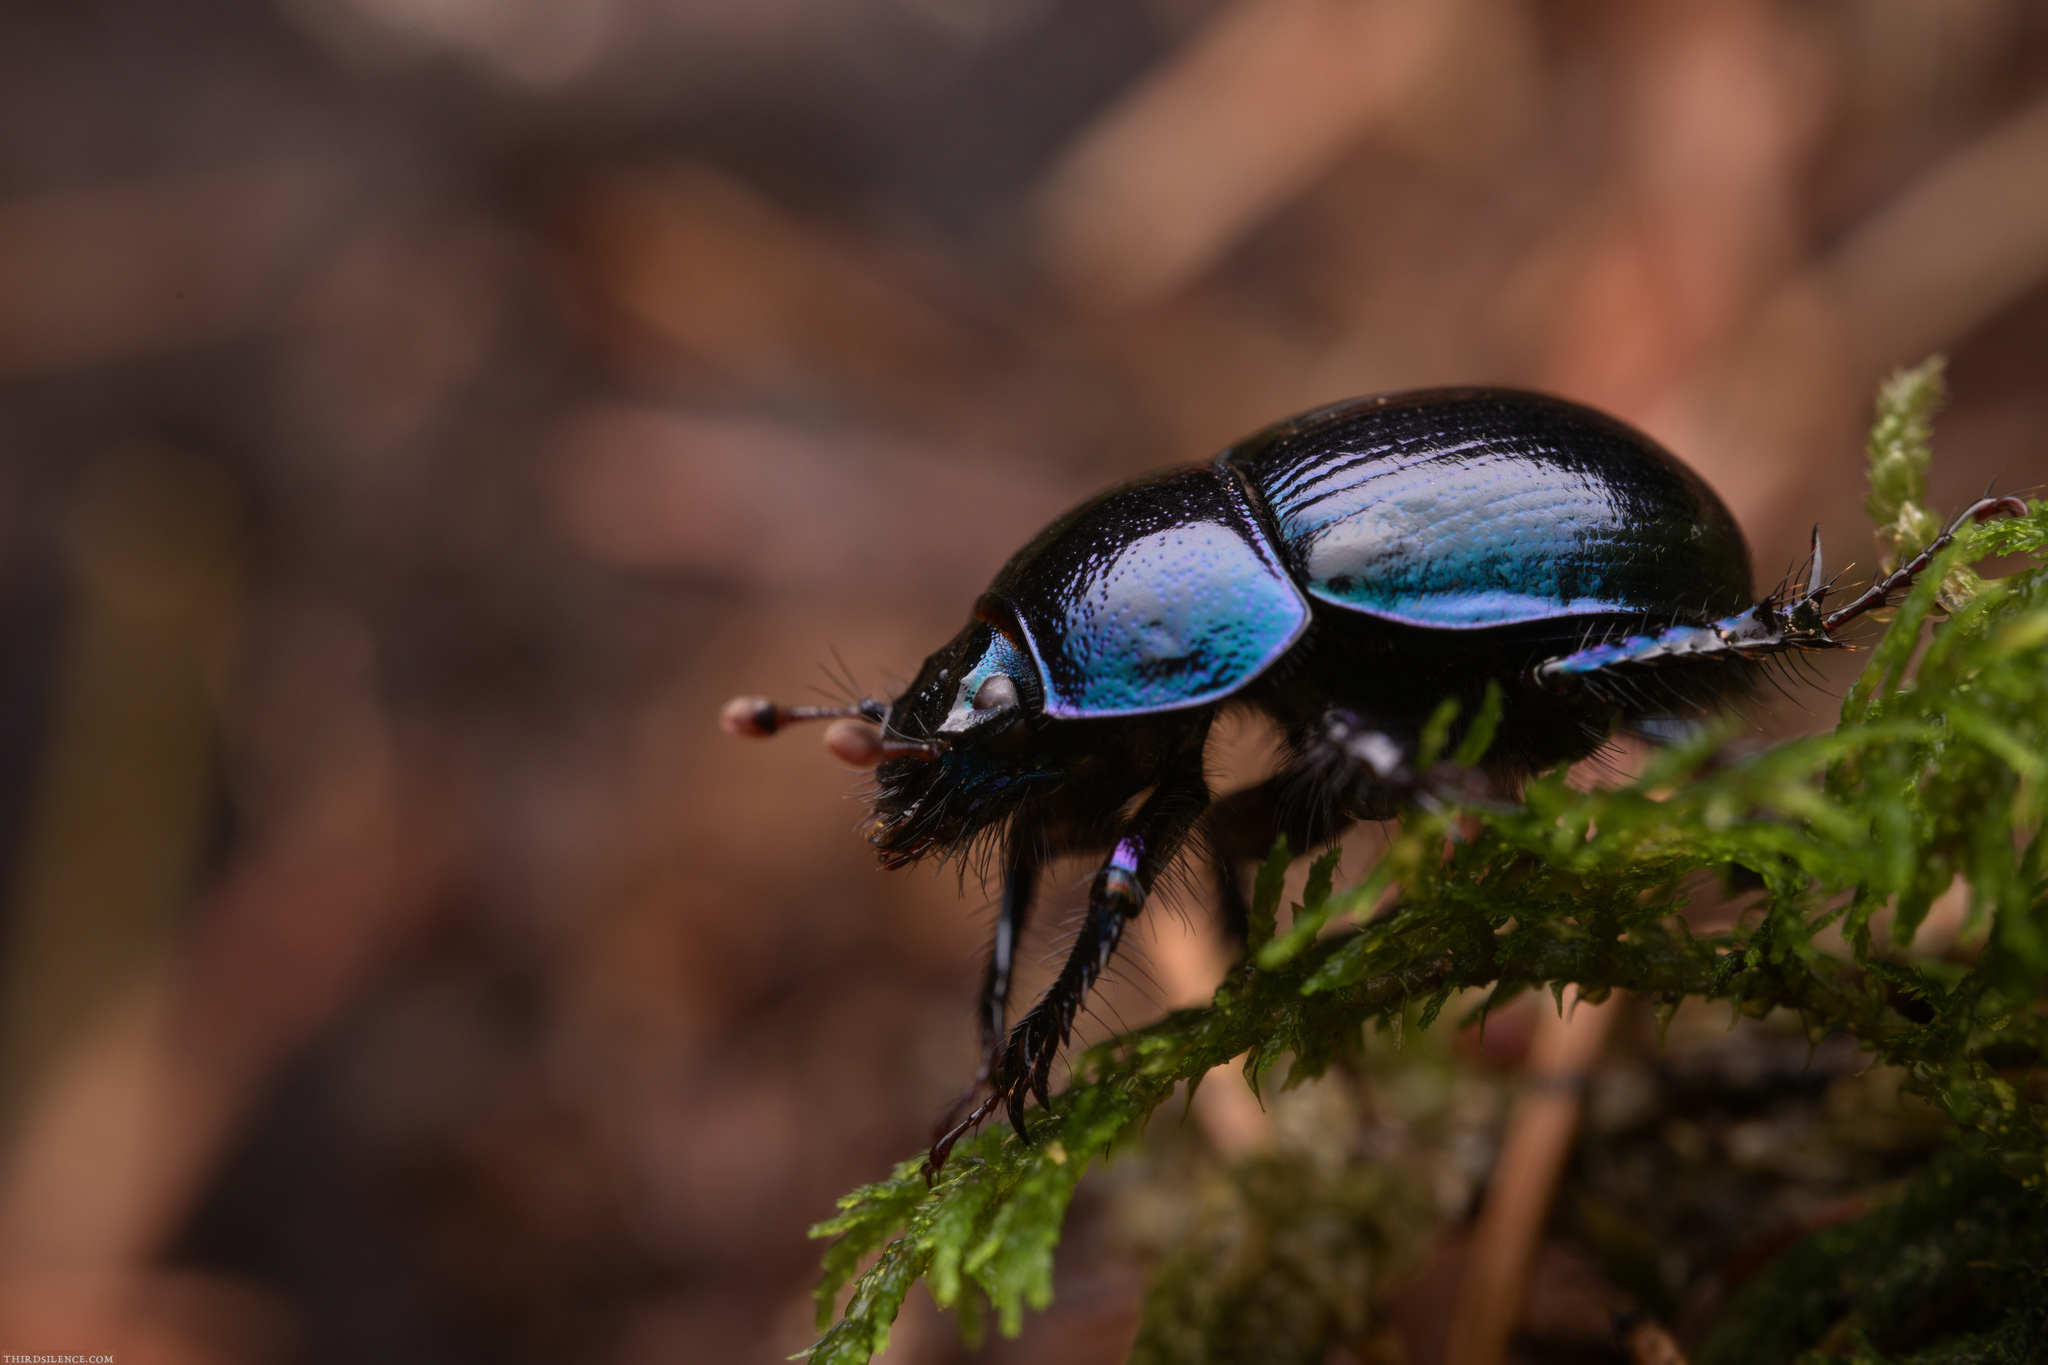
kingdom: Animalia
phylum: Arthropoda
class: Insecta
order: Coleoptera
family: Geotrupidae
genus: Anoplotrupes
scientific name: Anoplotrupes stercorosus
